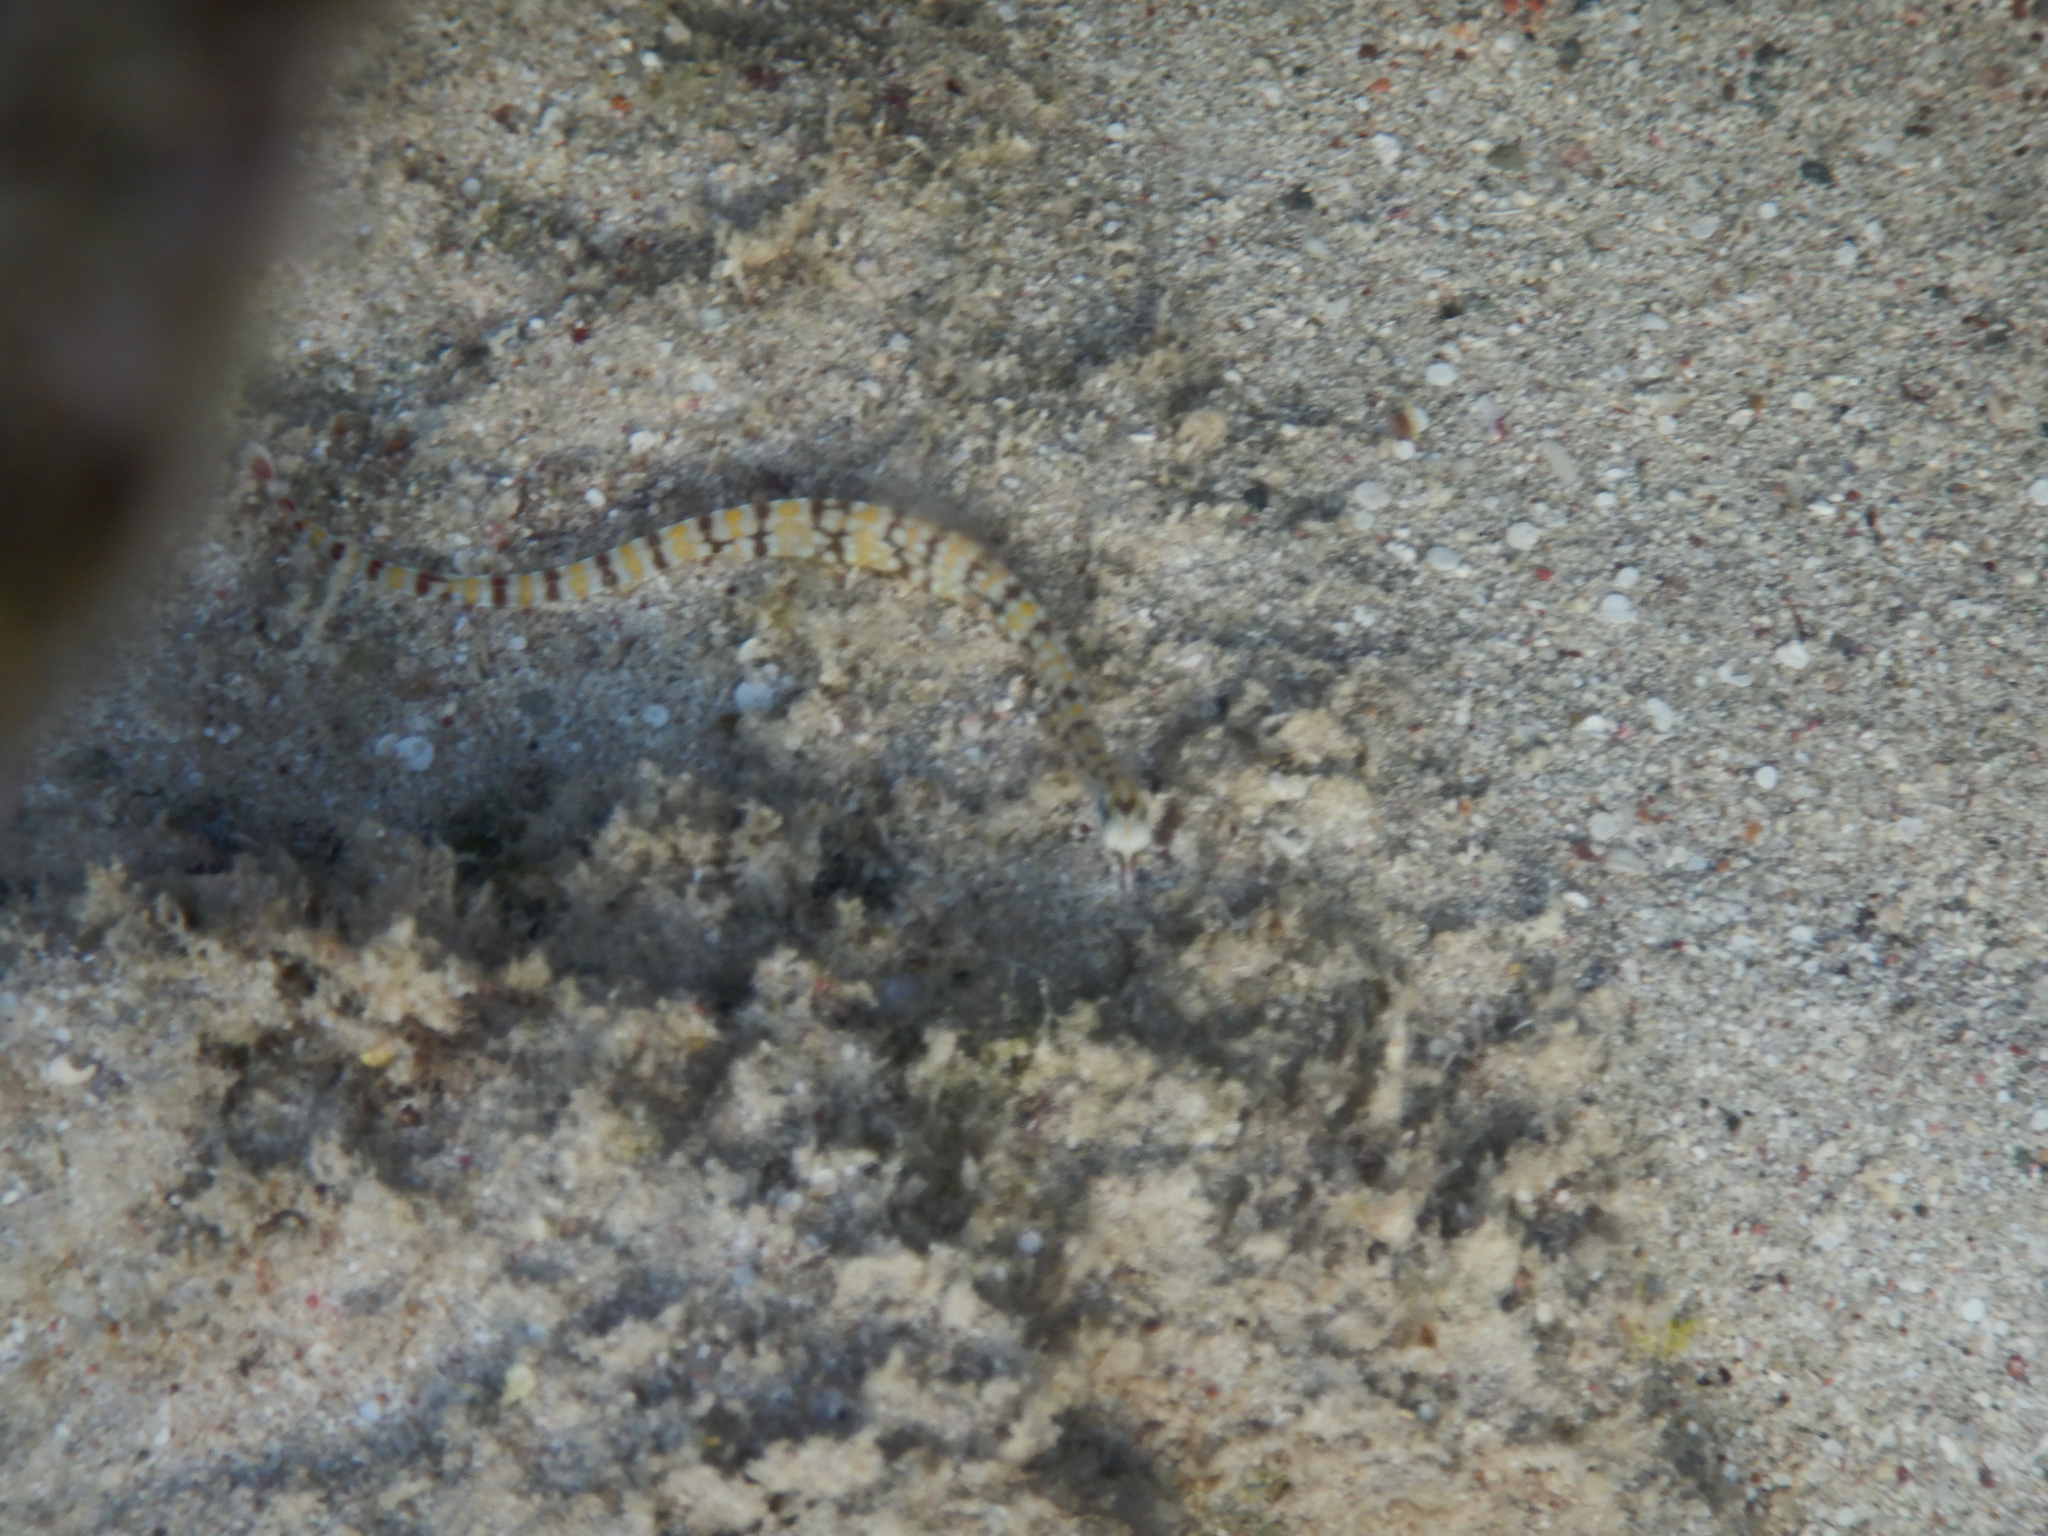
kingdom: Animalia
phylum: Chordata
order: Syngnathiformes
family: Syngnathidae
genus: Corythoichthys
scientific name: Corythoichthys flavofasciatus
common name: Banded pipefish
